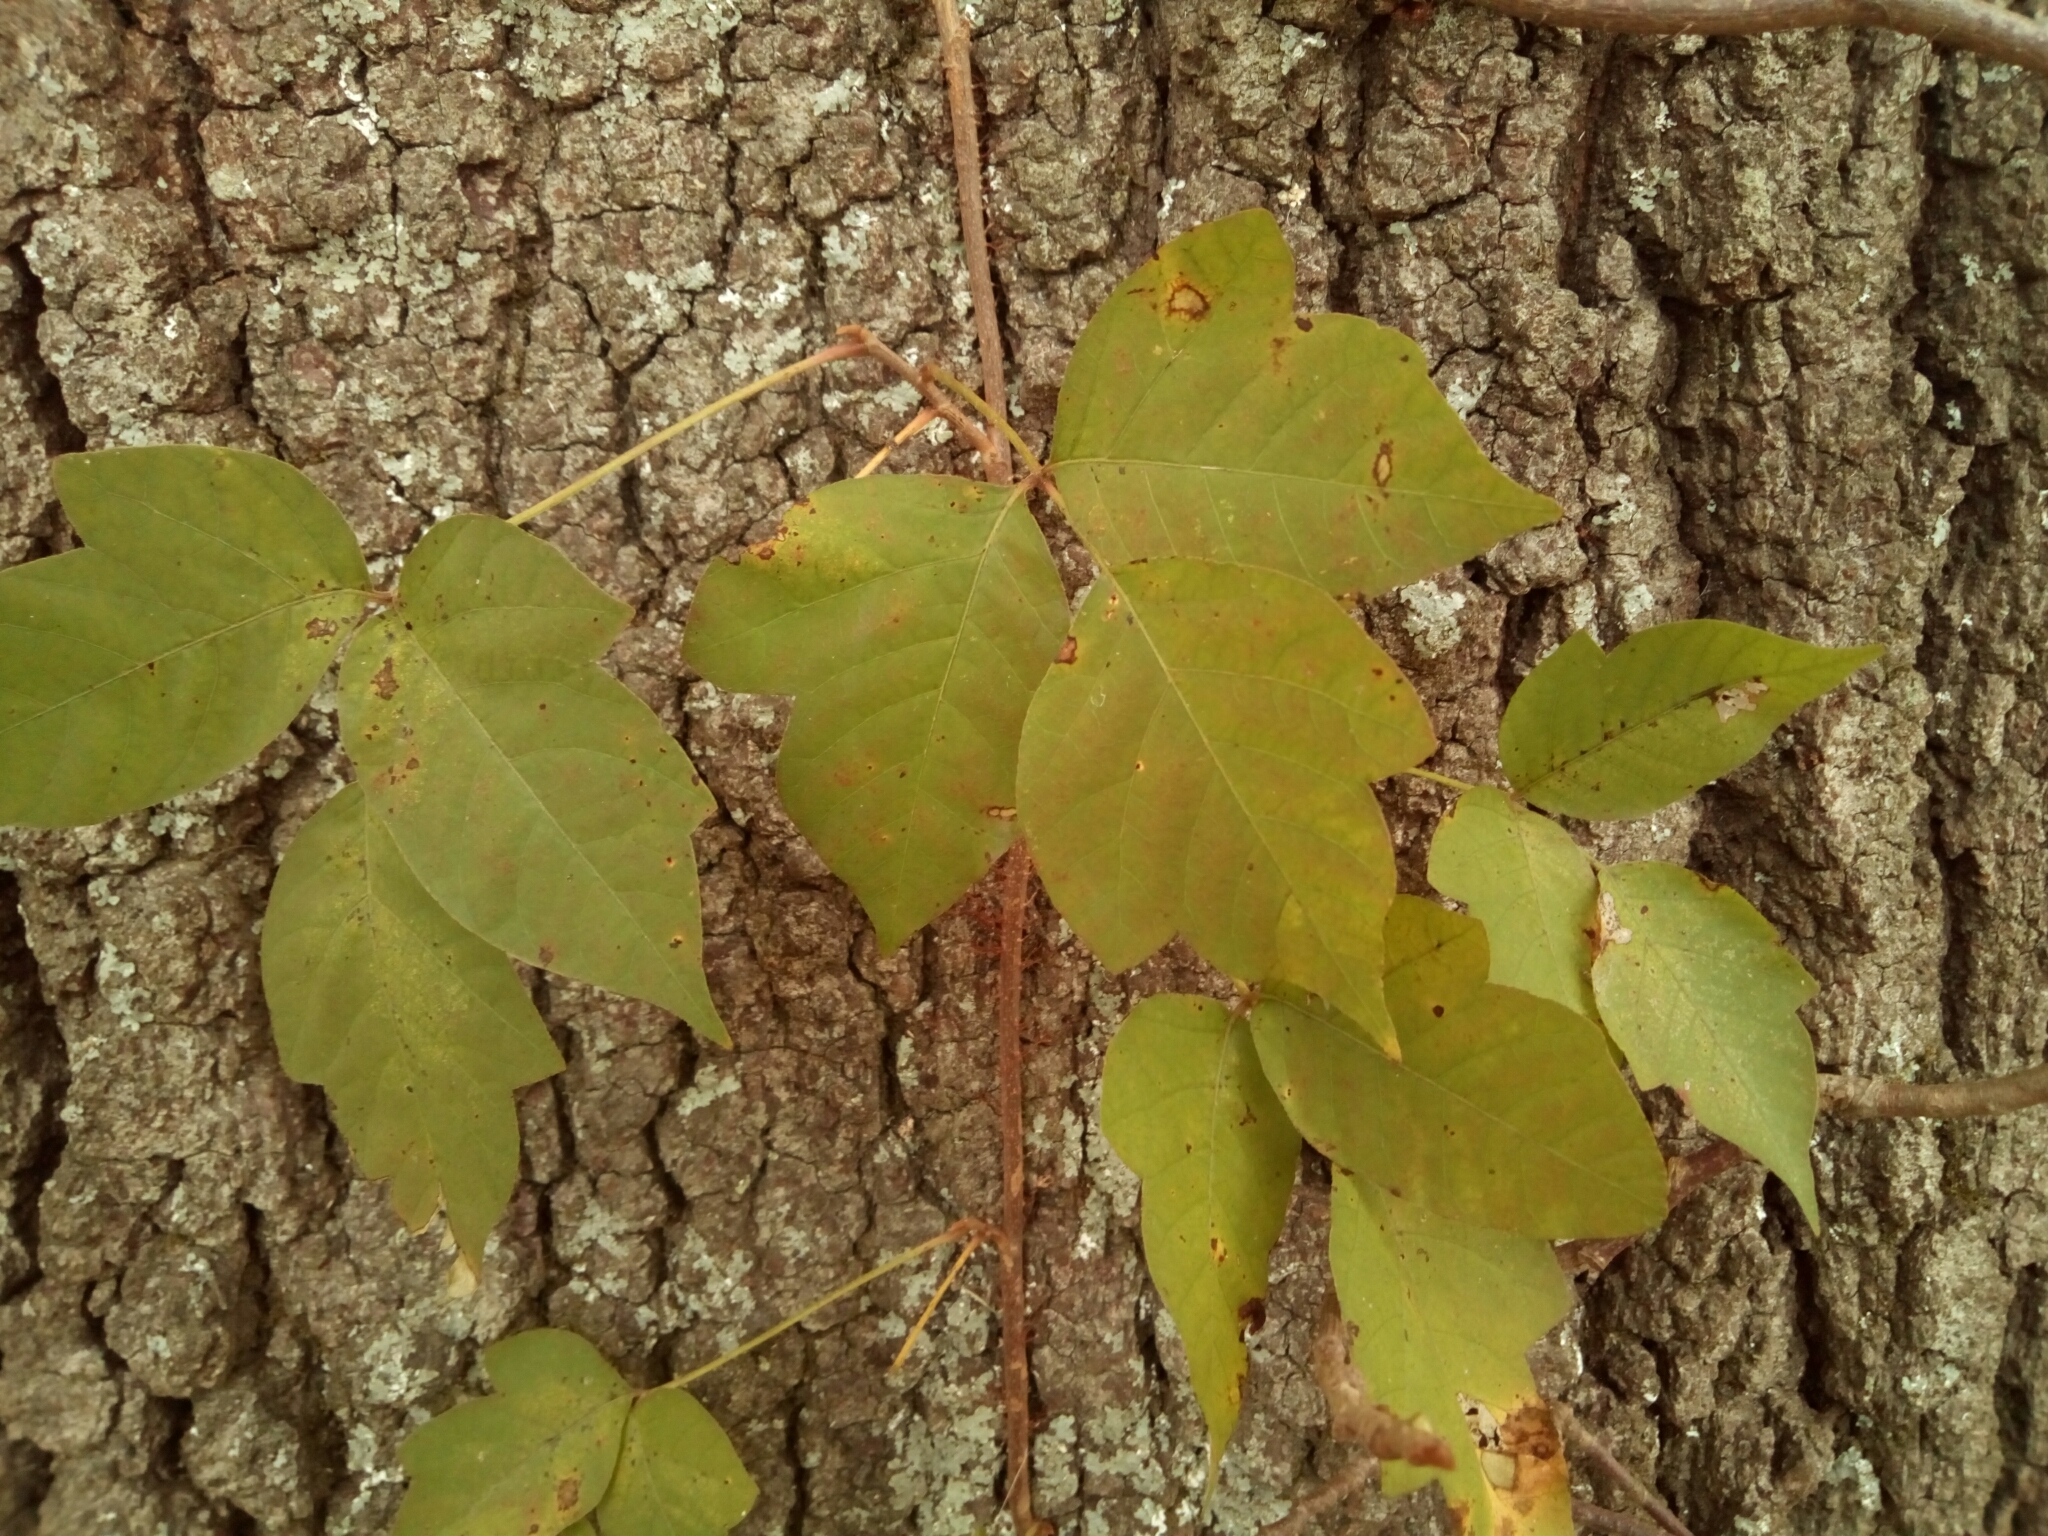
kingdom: Plantae
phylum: Tracheophyta
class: Magnoliopsida
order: Sapindales
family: Anacardiaceae
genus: Toxicodendron
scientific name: Toxicodendron radicans
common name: Poison ivy
